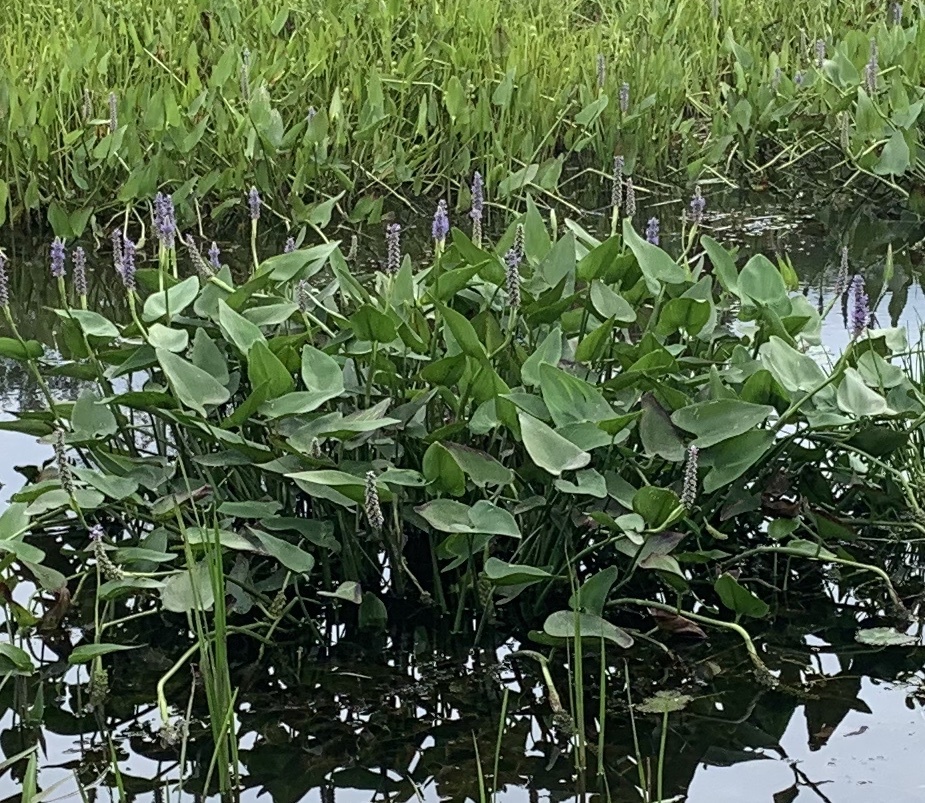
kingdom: Plantae
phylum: Tracheophyta
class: Liliopsida
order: Commelinales
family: Pontederiaceae
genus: Pontederia
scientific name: Pontederia cordata
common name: Pickerelweed
